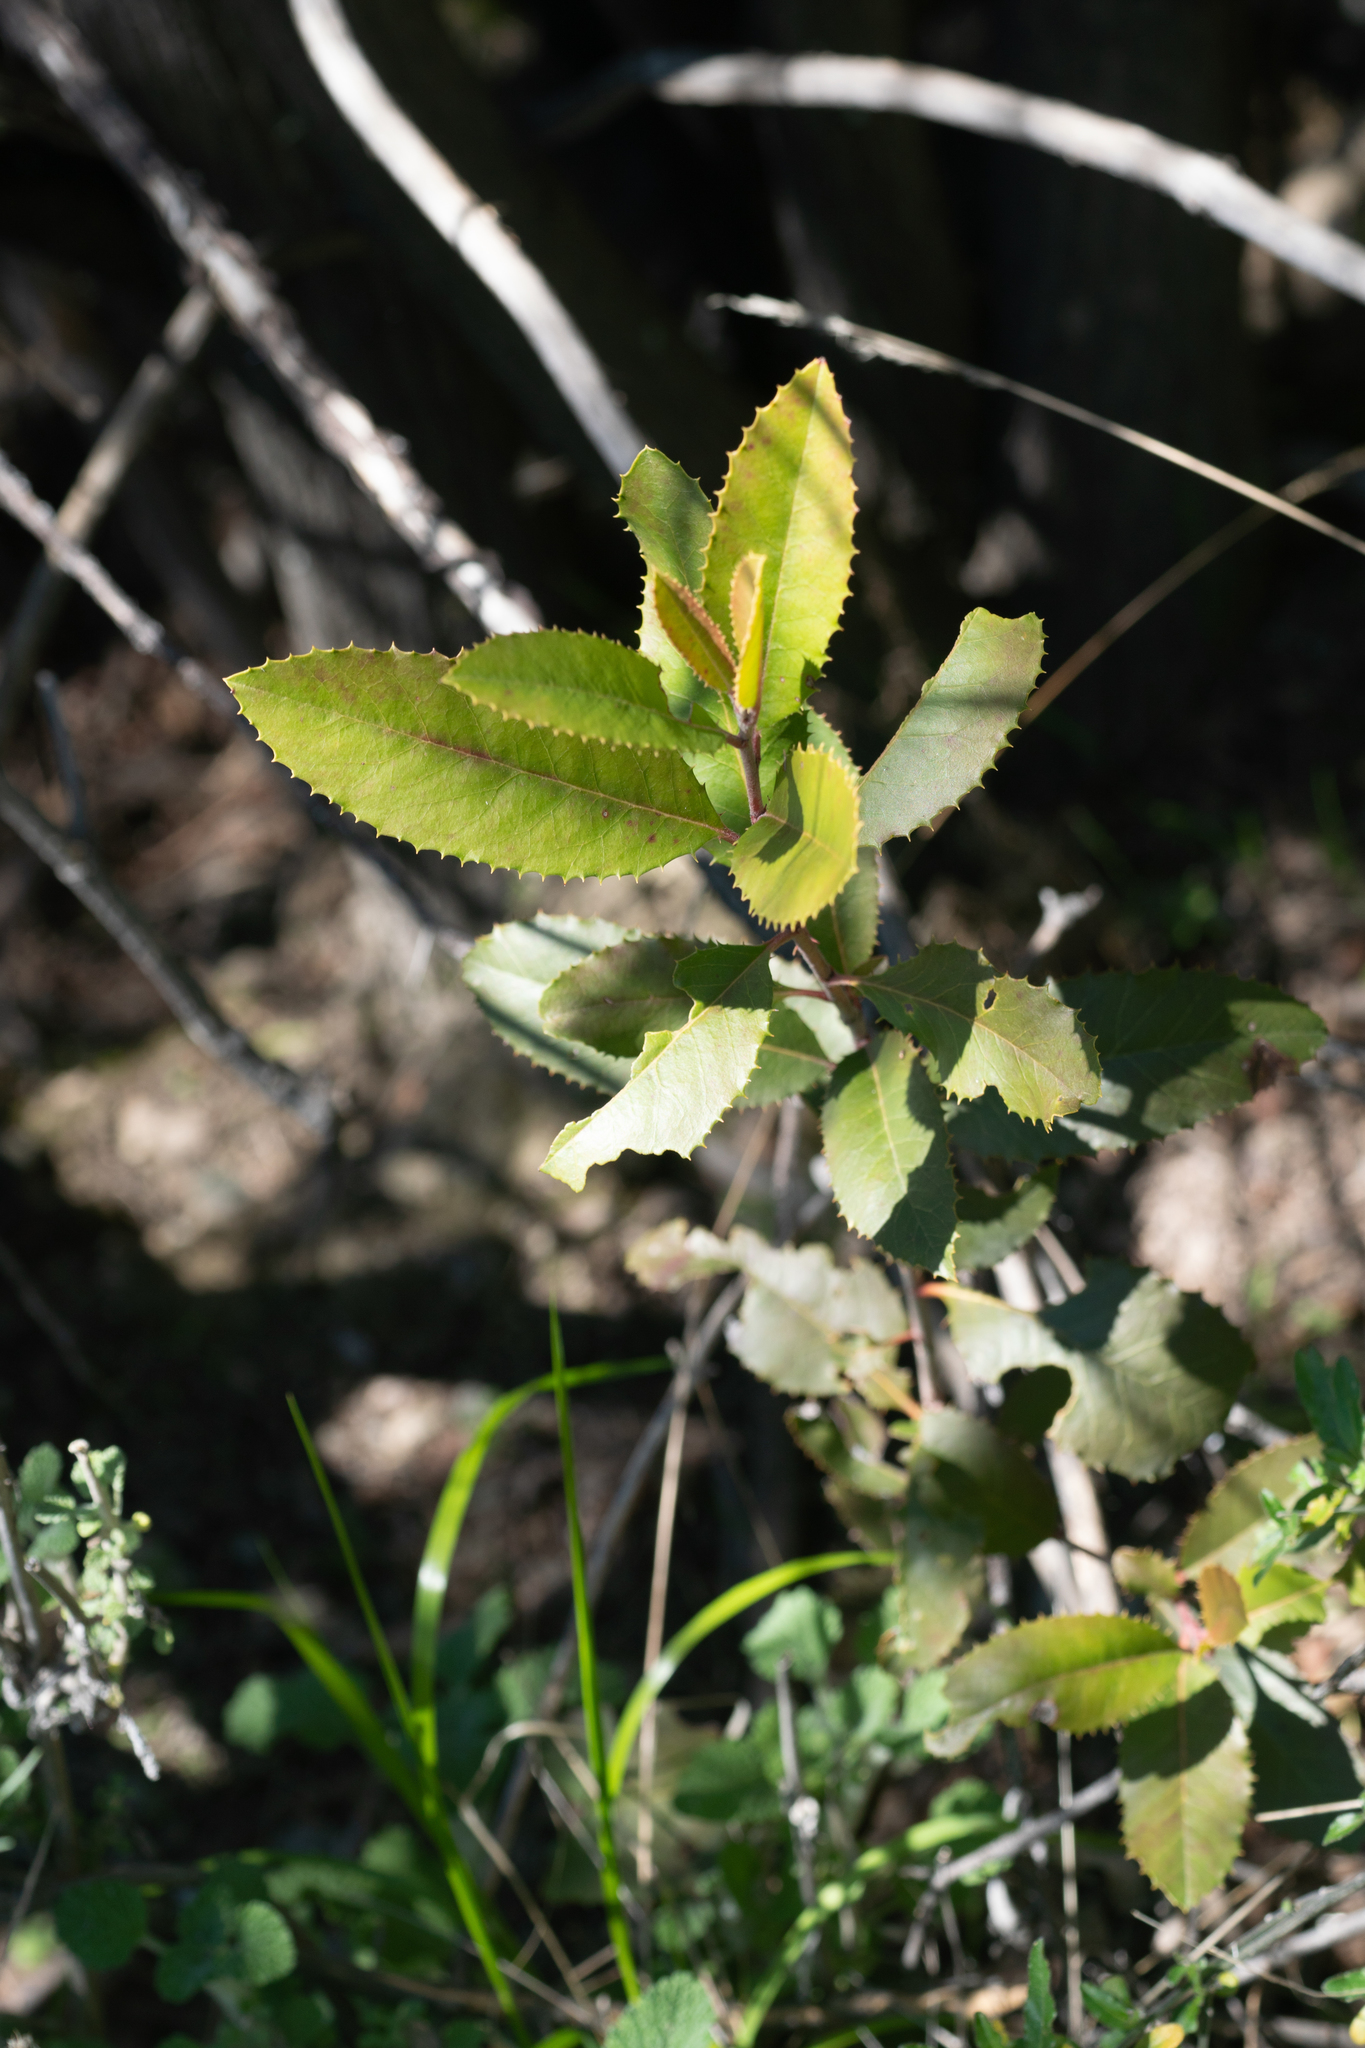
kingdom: Plantae
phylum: Tracheophyta
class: Magnoliopsida
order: Rosales
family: Rosaceae
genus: Heteromeles
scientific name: Heteromeles arbutifolia
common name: California-holly
